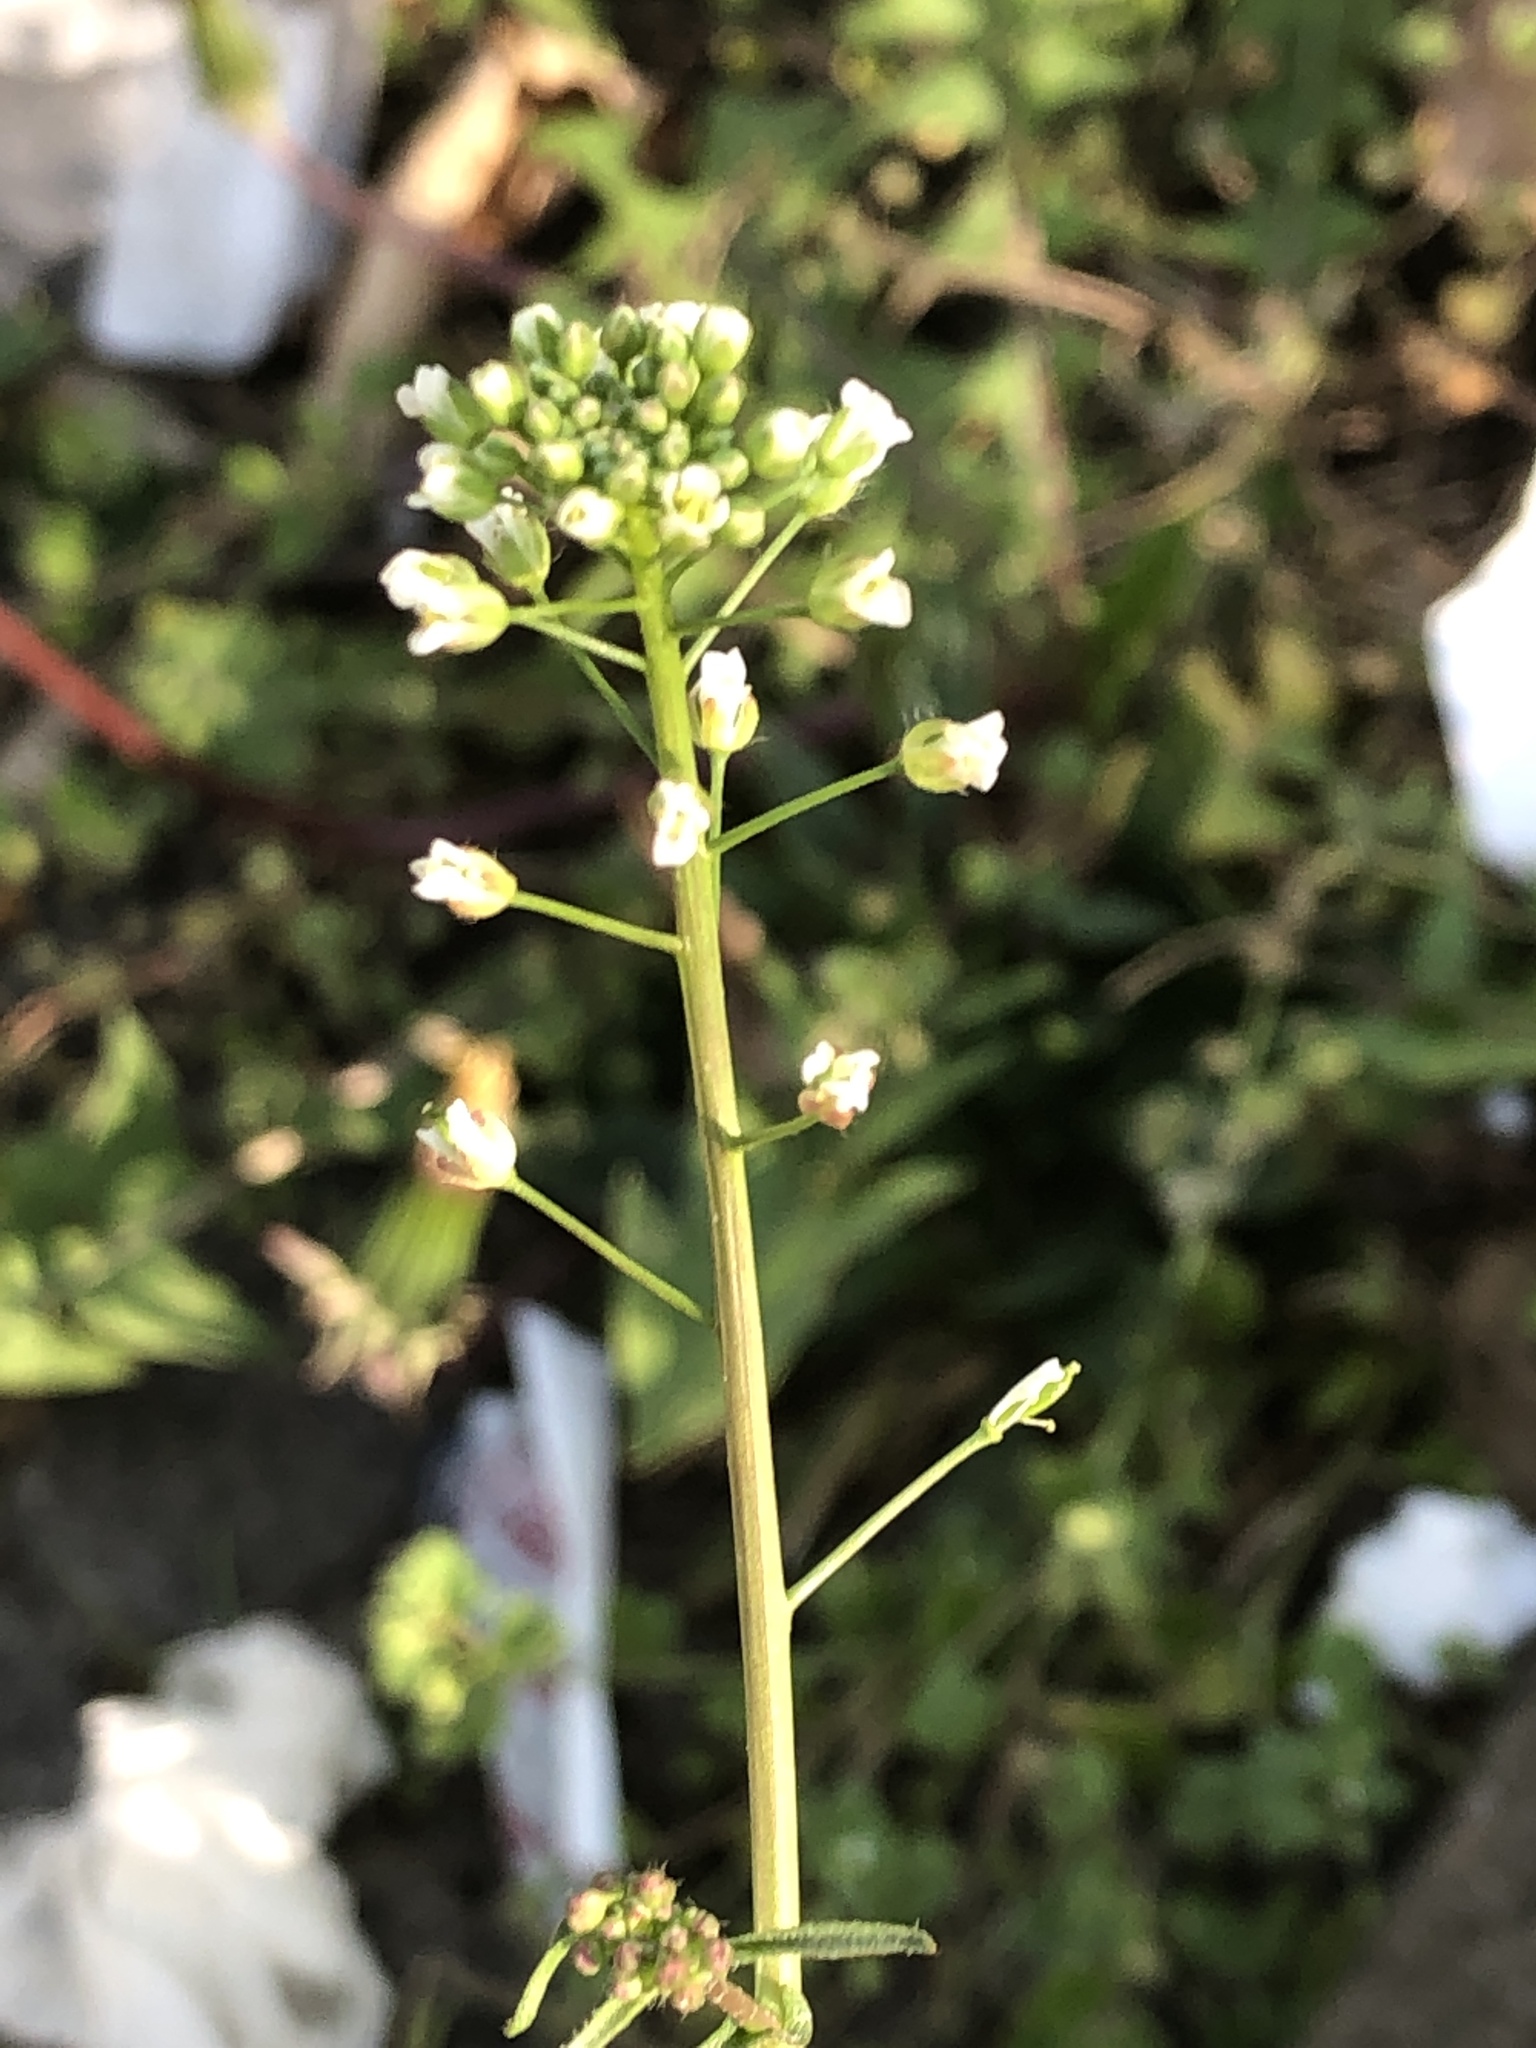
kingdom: Plantae
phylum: Tracheophyta
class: Magnoliopsida
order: Brassicales
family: Brassicaceae
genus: Capsella
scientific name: Capsella bursa-pastoris
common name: Shepherd's purse
